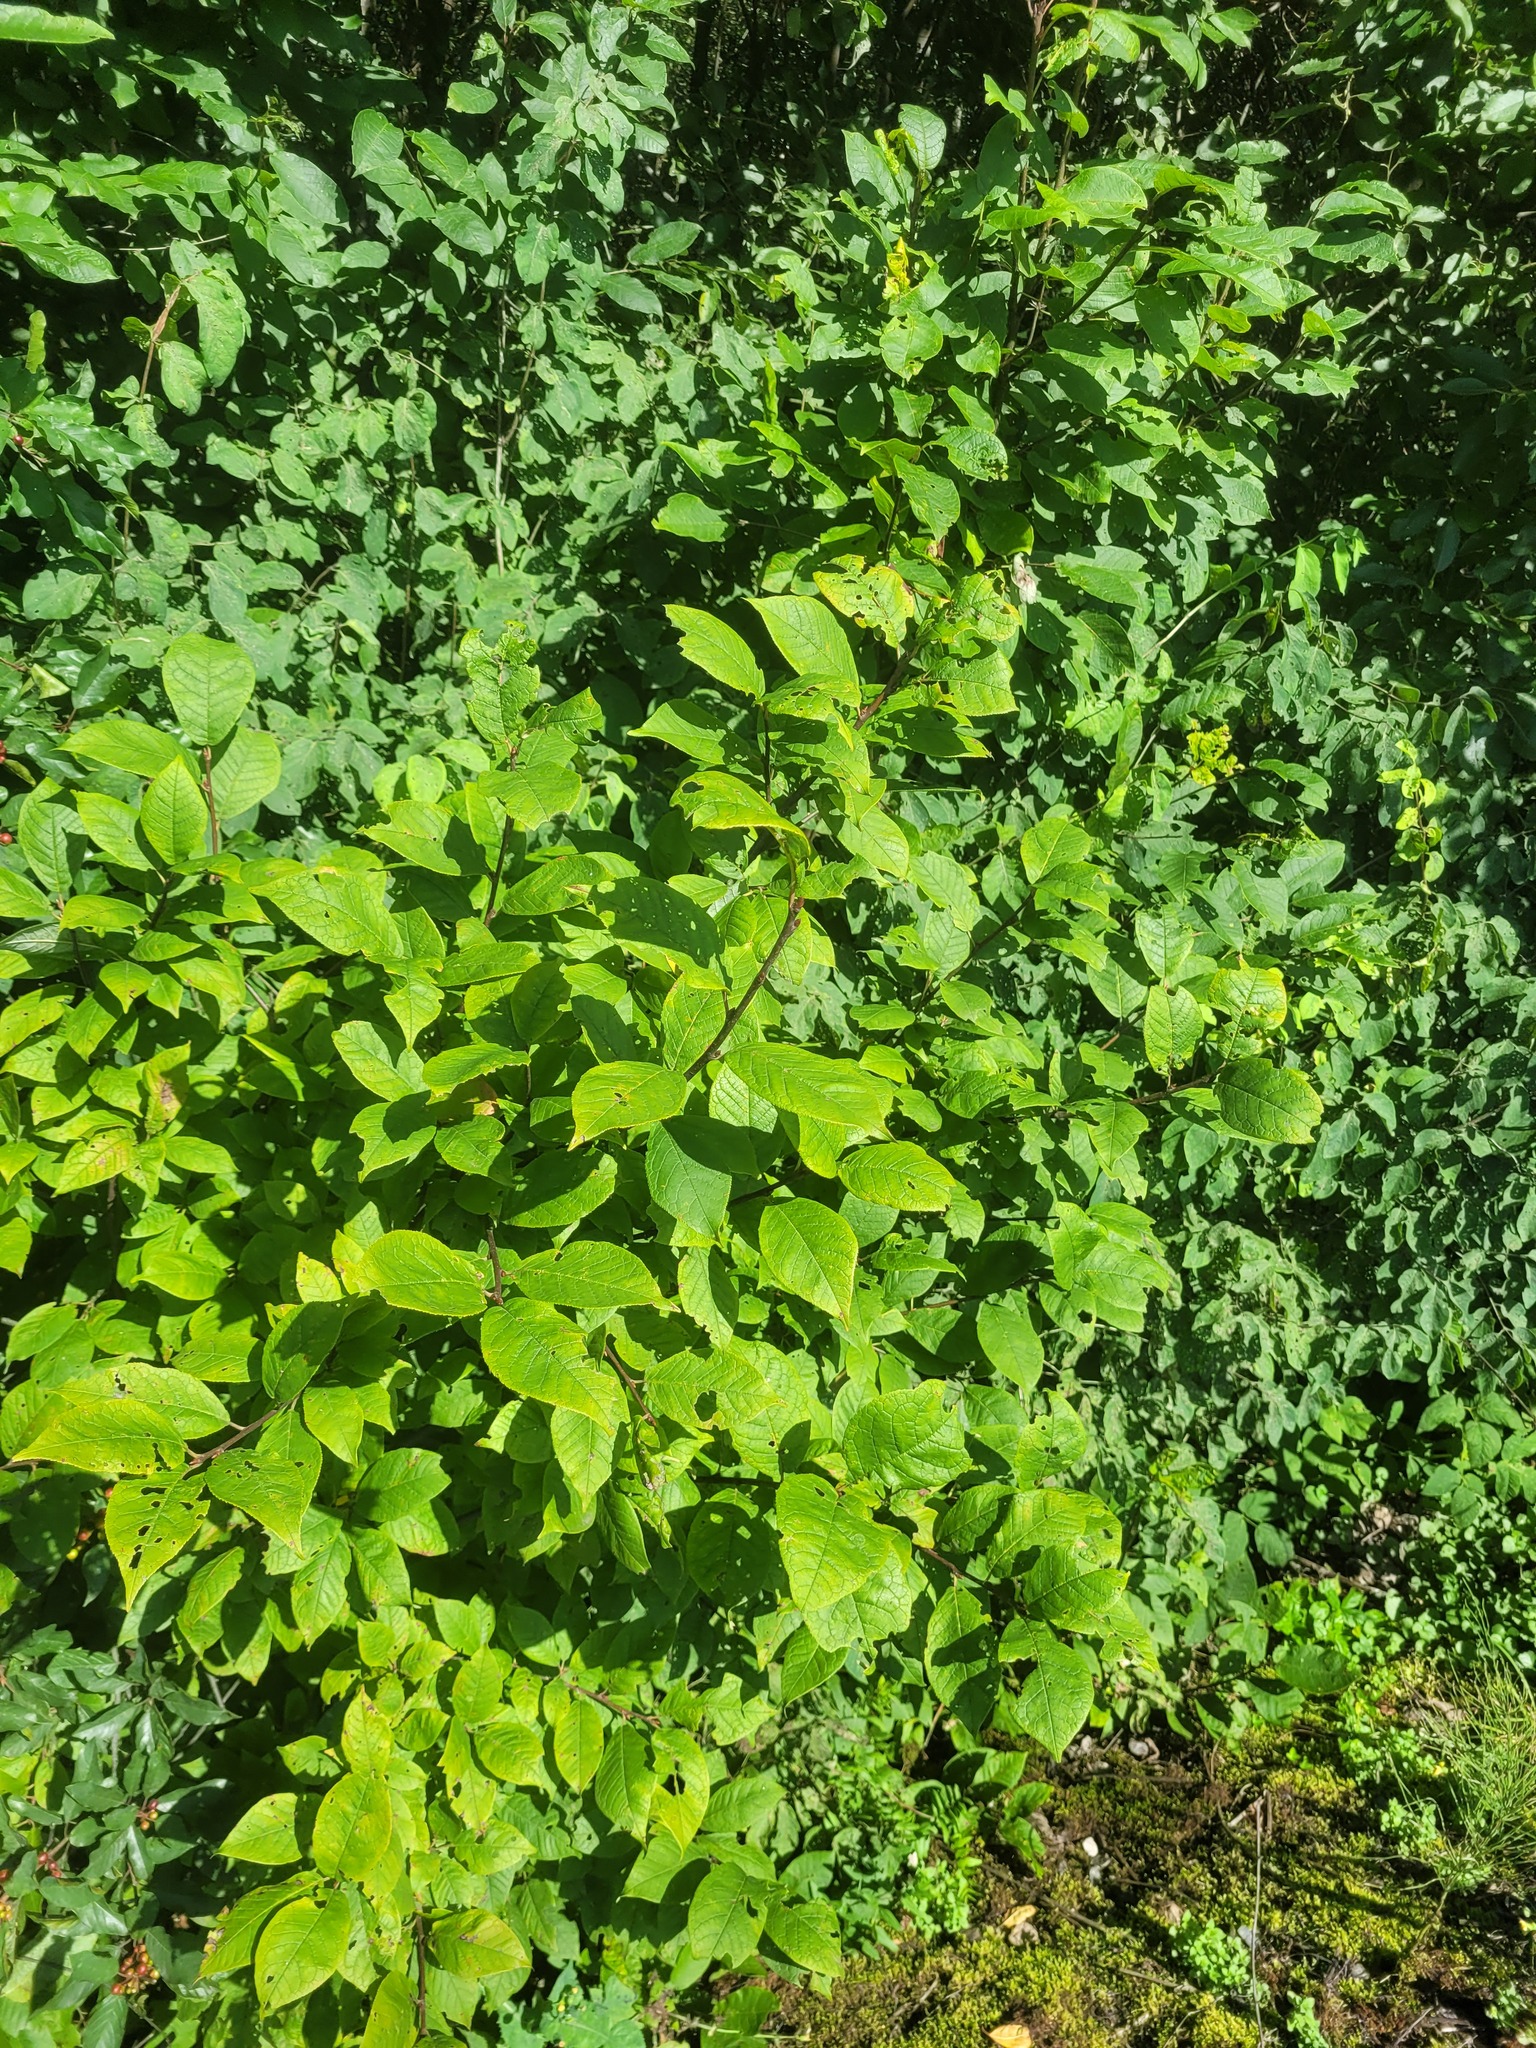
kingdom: Plantae
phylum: Tracheophyta
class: Magnoliopsida
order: Rosales
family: Rosaceae
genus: Prunus
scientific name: Prunus padus
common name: Bird cherry
